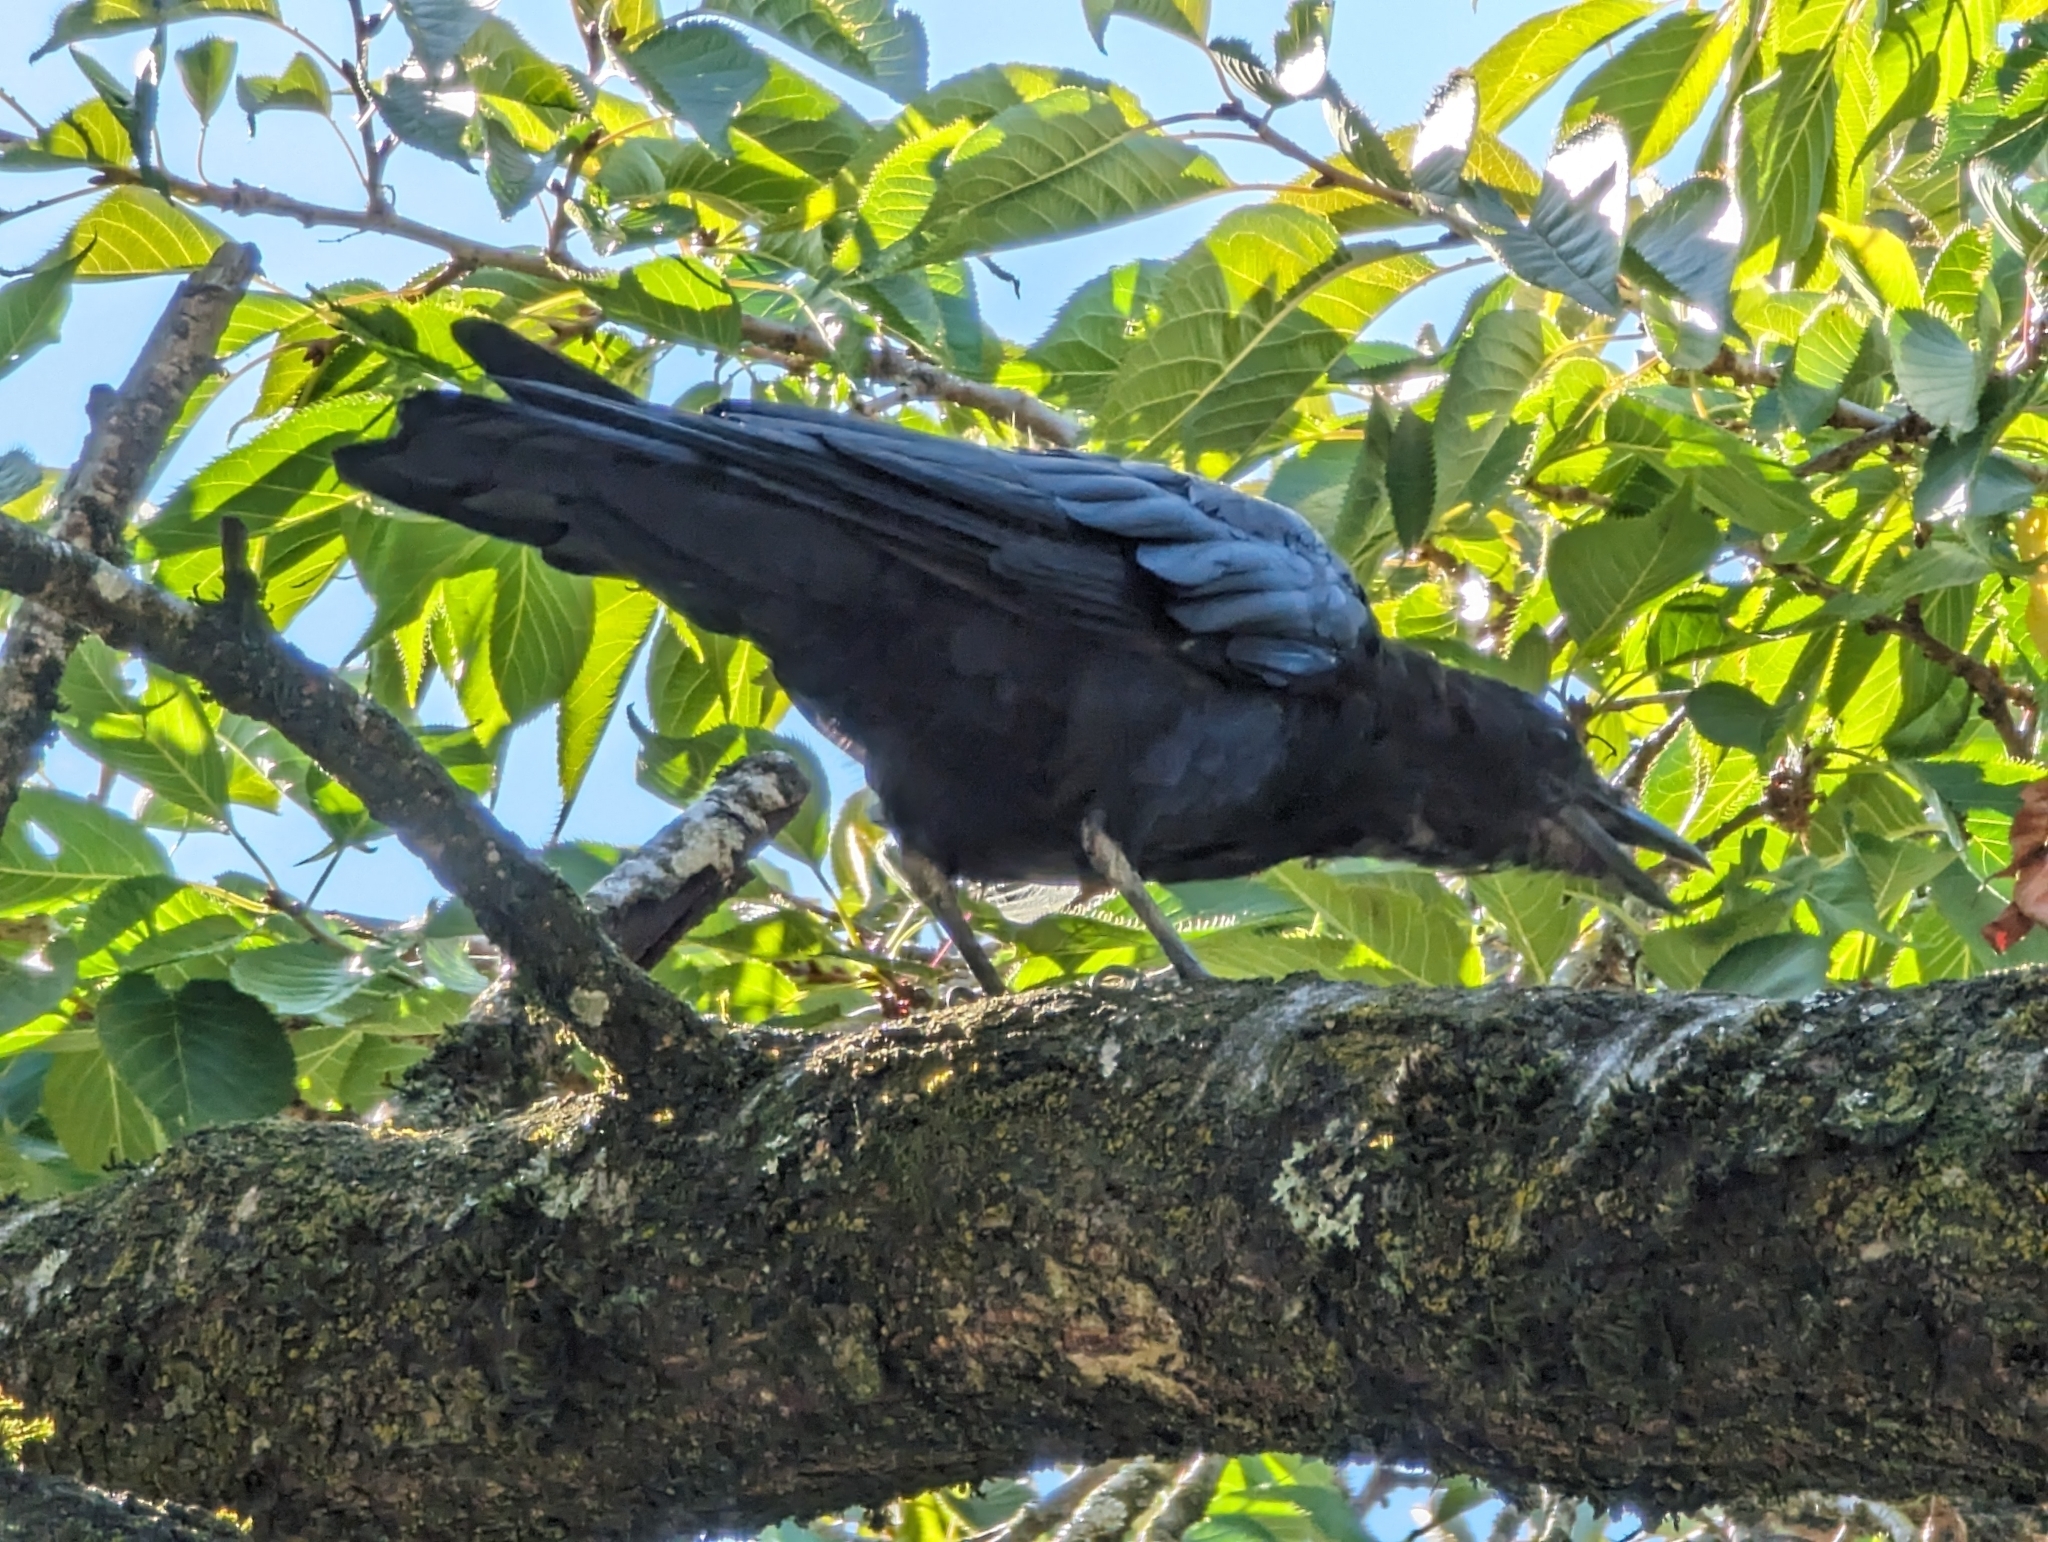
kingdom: Animalia
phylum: Chordata
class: Aves
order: Passeriformes
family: Corvidae
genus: Corvus
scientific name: Corvus brachyrhynchos
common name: American crow
